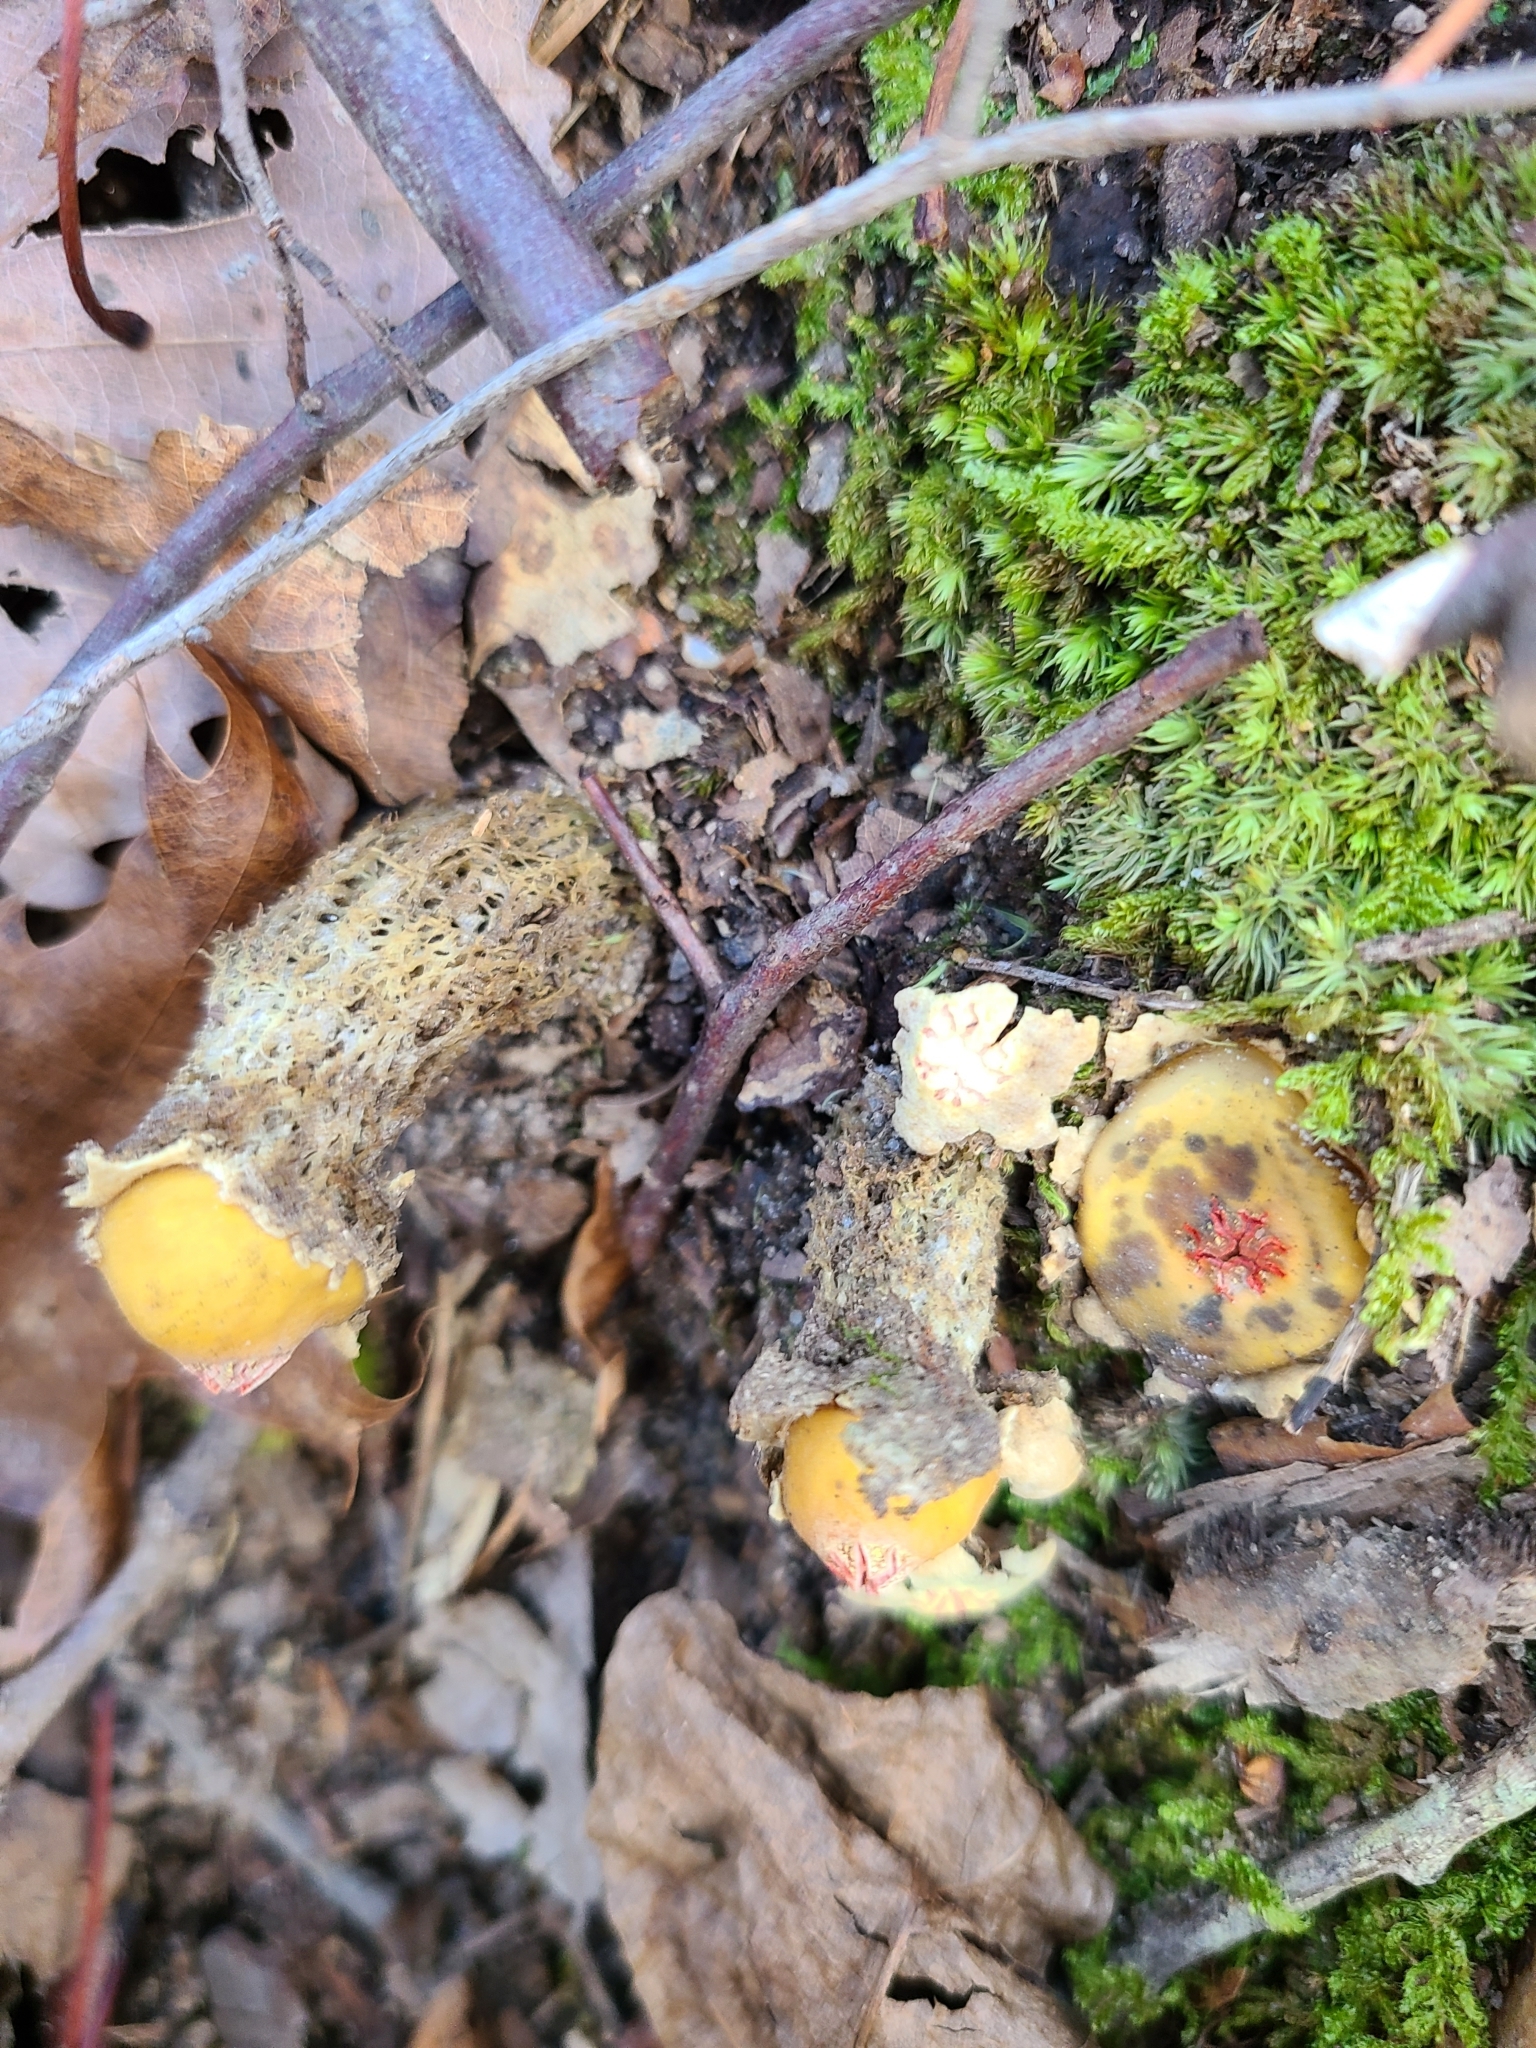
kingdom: Fungi
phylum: Basidiomycota
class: Agaricomycetes
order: Boletales
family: Calostomataceae
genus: Calostoma
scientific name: Calostoma lutescens
